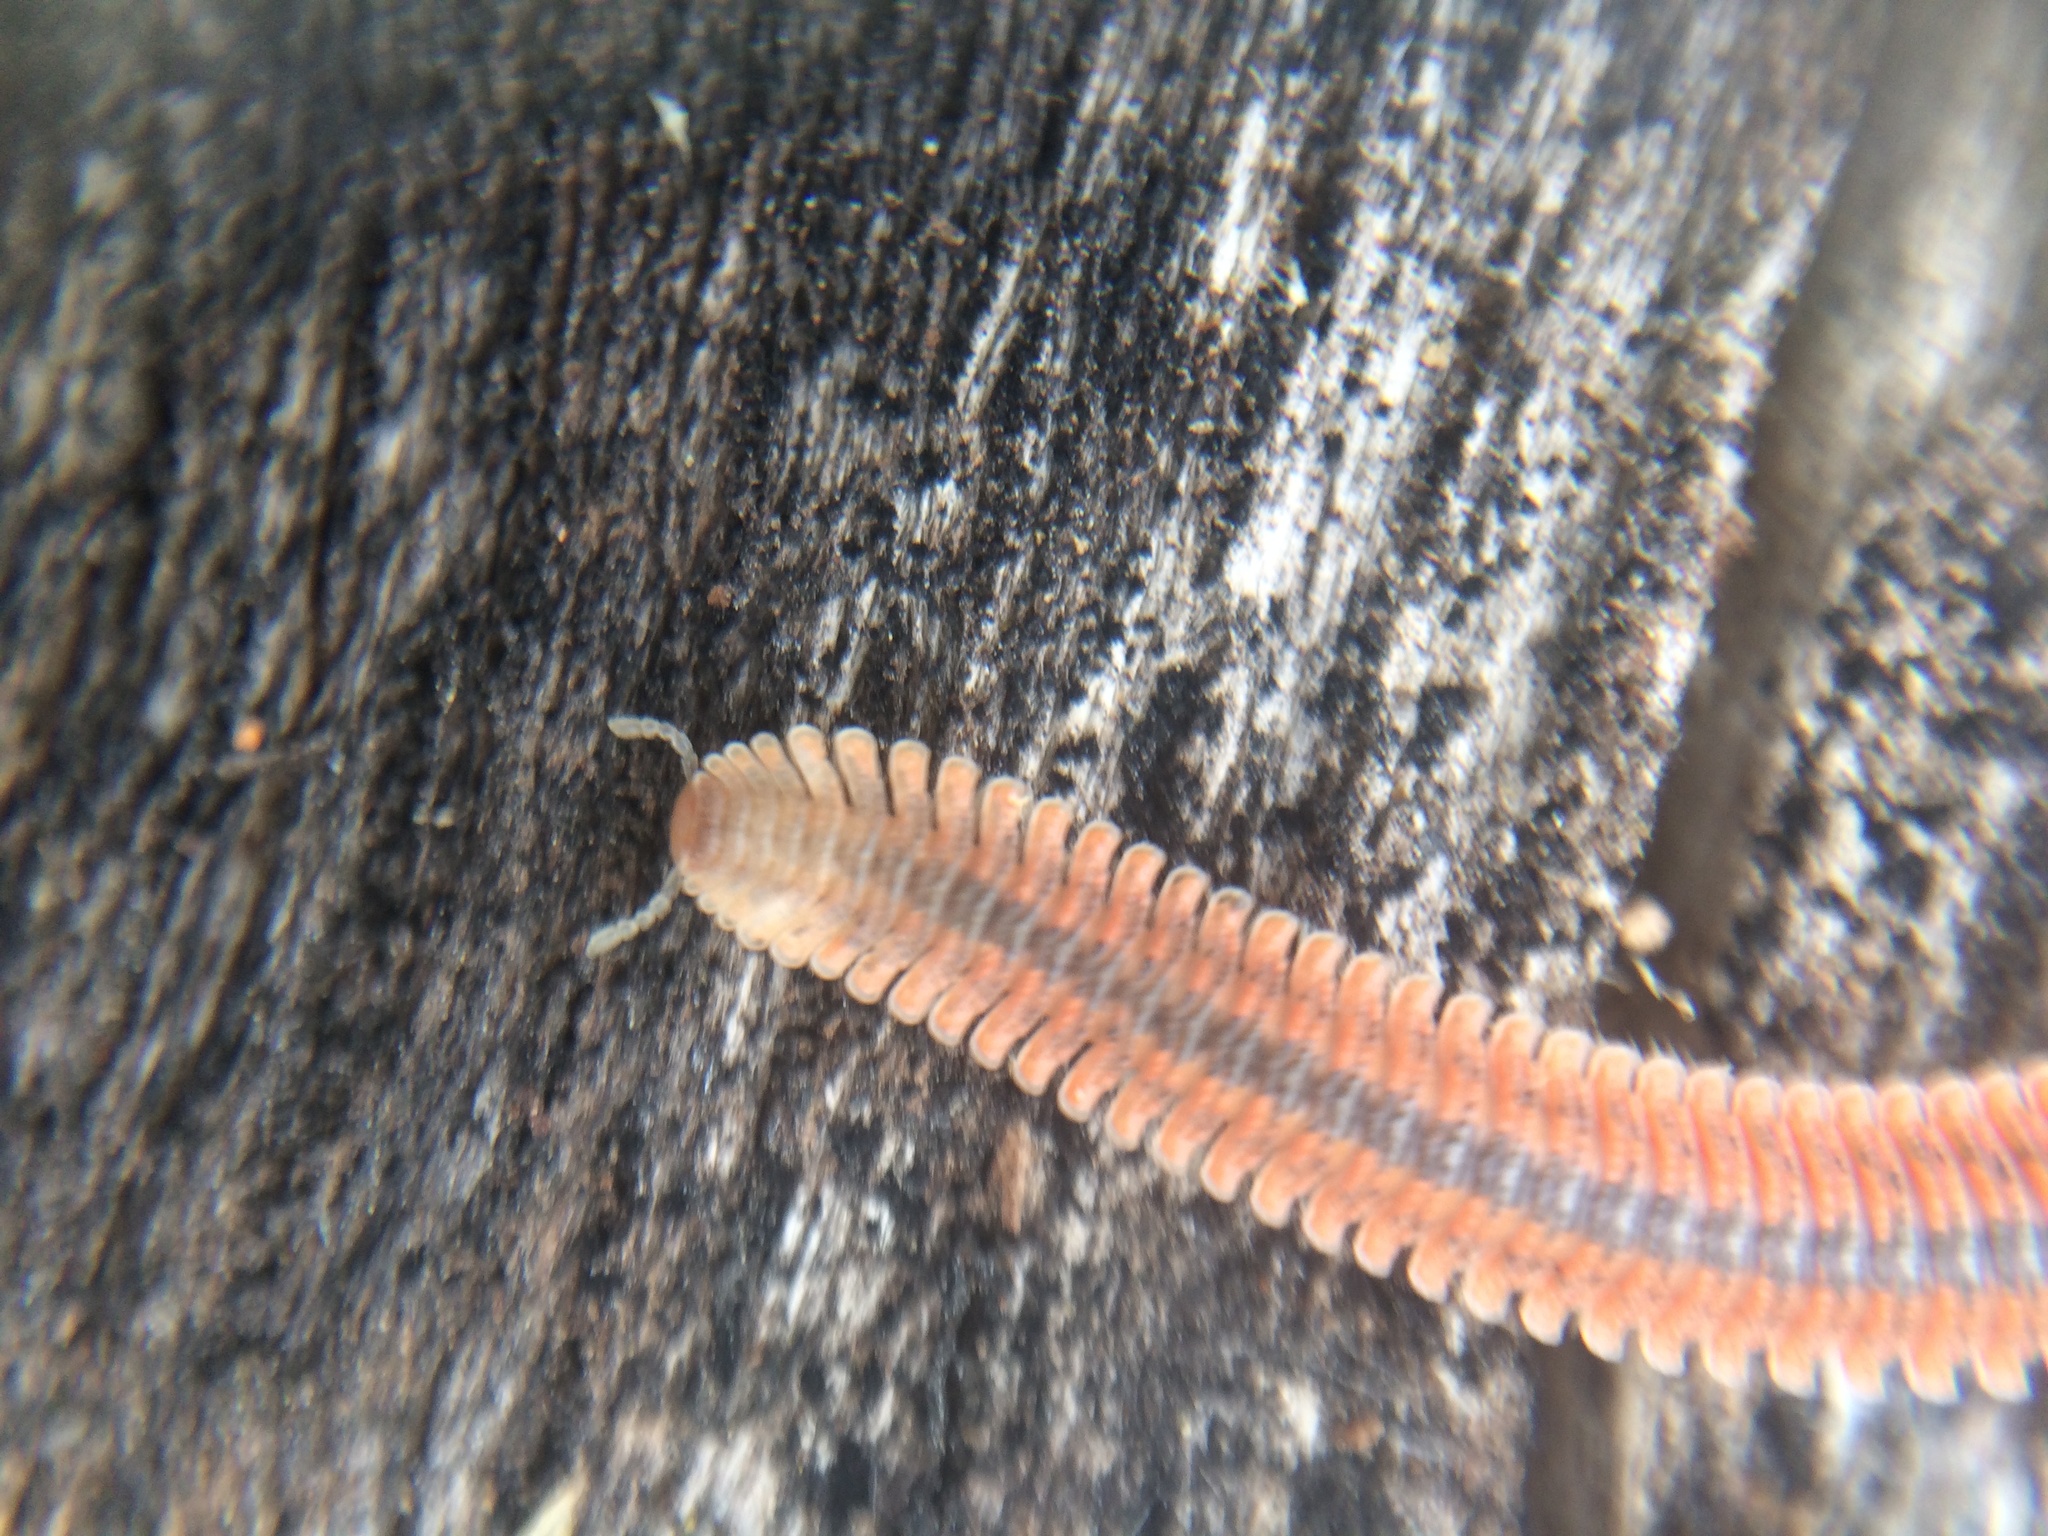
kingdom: Animalia
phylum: Arthropoda
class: Diplopoda
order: Platydesmida
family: Andrognathidae
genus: Brachycybe
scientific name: Brachycybe producta
